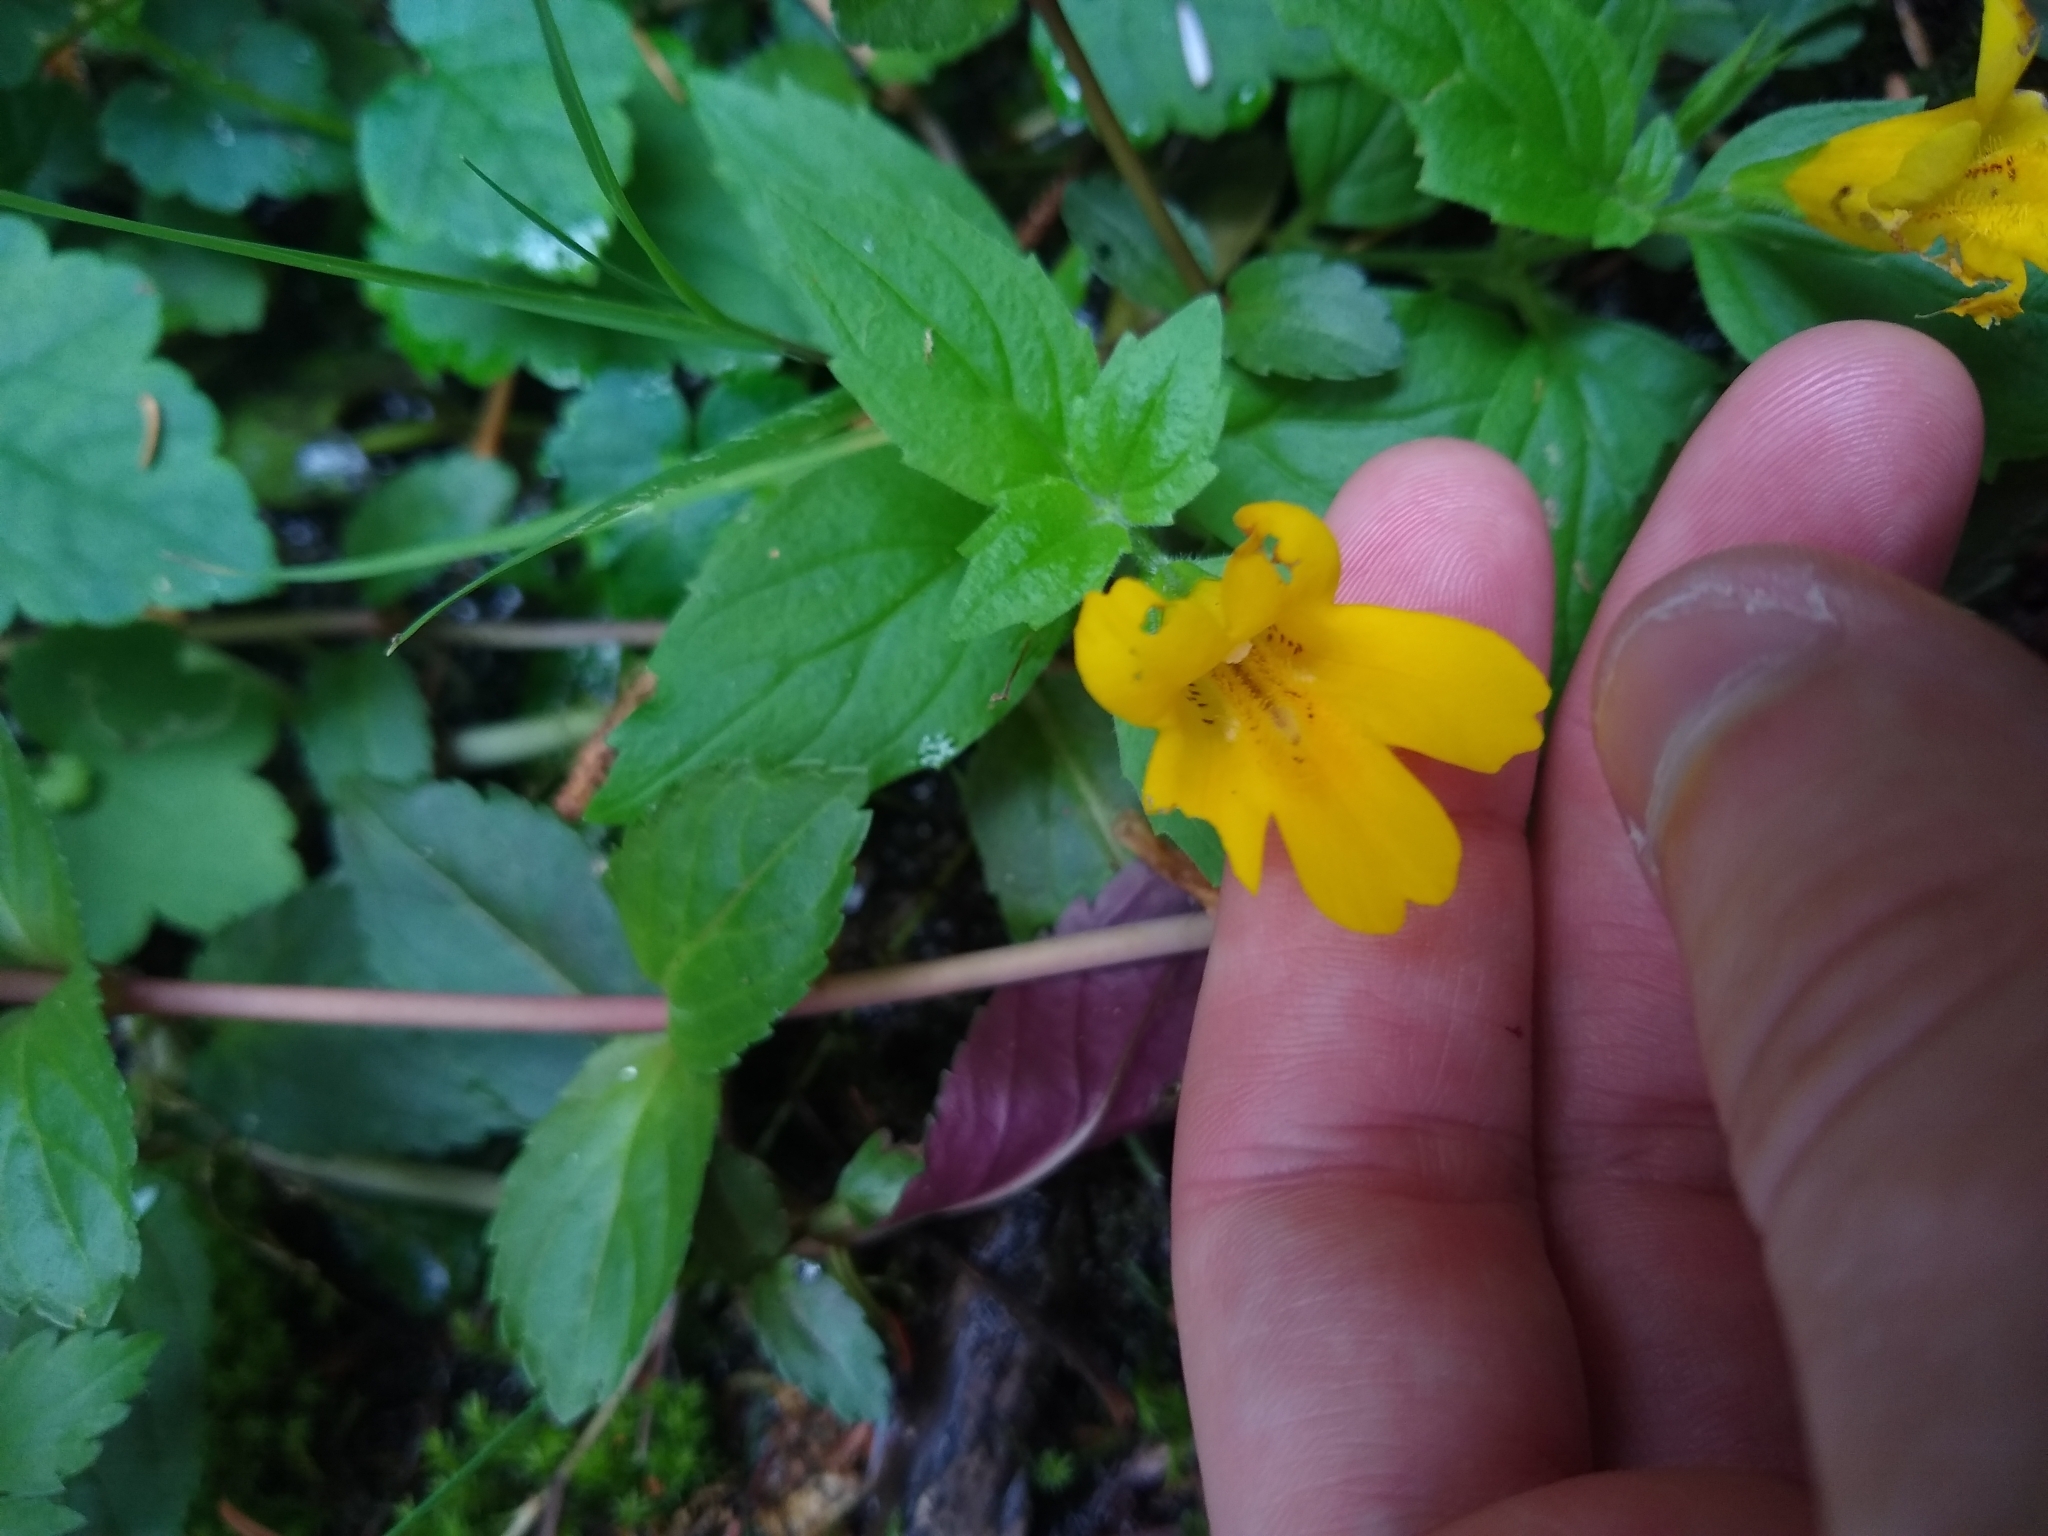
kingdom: Plantae
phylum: Tracheophyta
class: Magnoliopsida
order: Lamiales
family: Phrymaceae
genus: Erythranthe
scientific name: Erythranthe dentata
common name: Coastal monkeyflower
